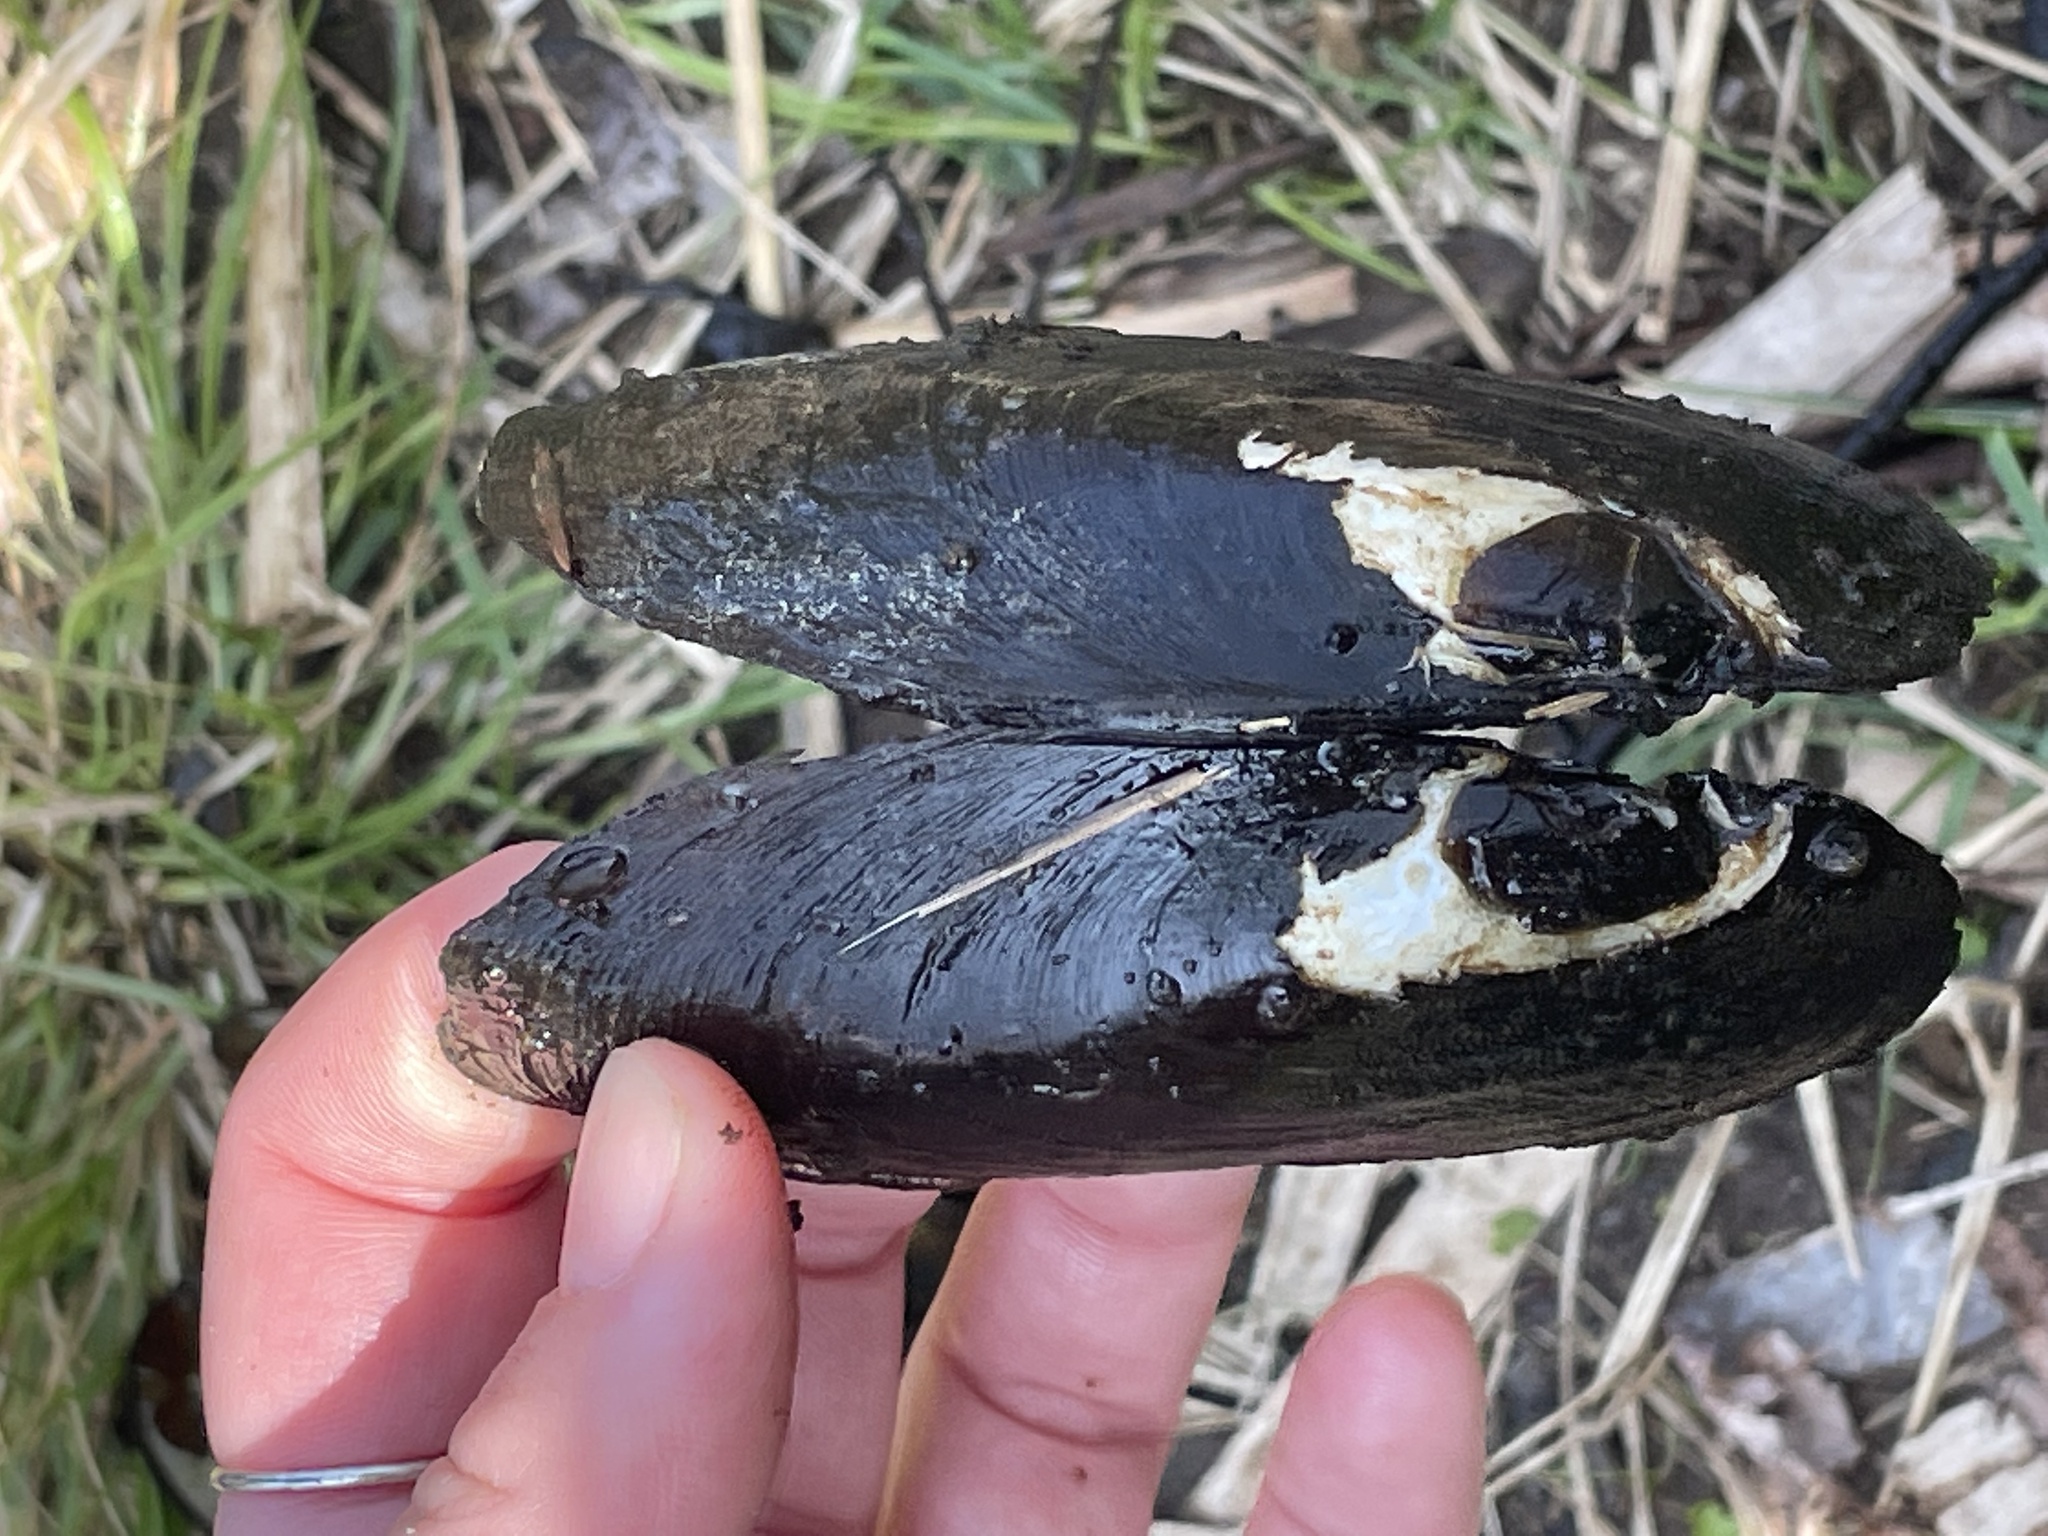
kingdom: Animalia
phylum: Mollusca
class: Bivalvia
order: Unionida
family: Unionidae
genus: Elliptio
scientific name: Elliptio complanata
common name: Eastern elliptio
